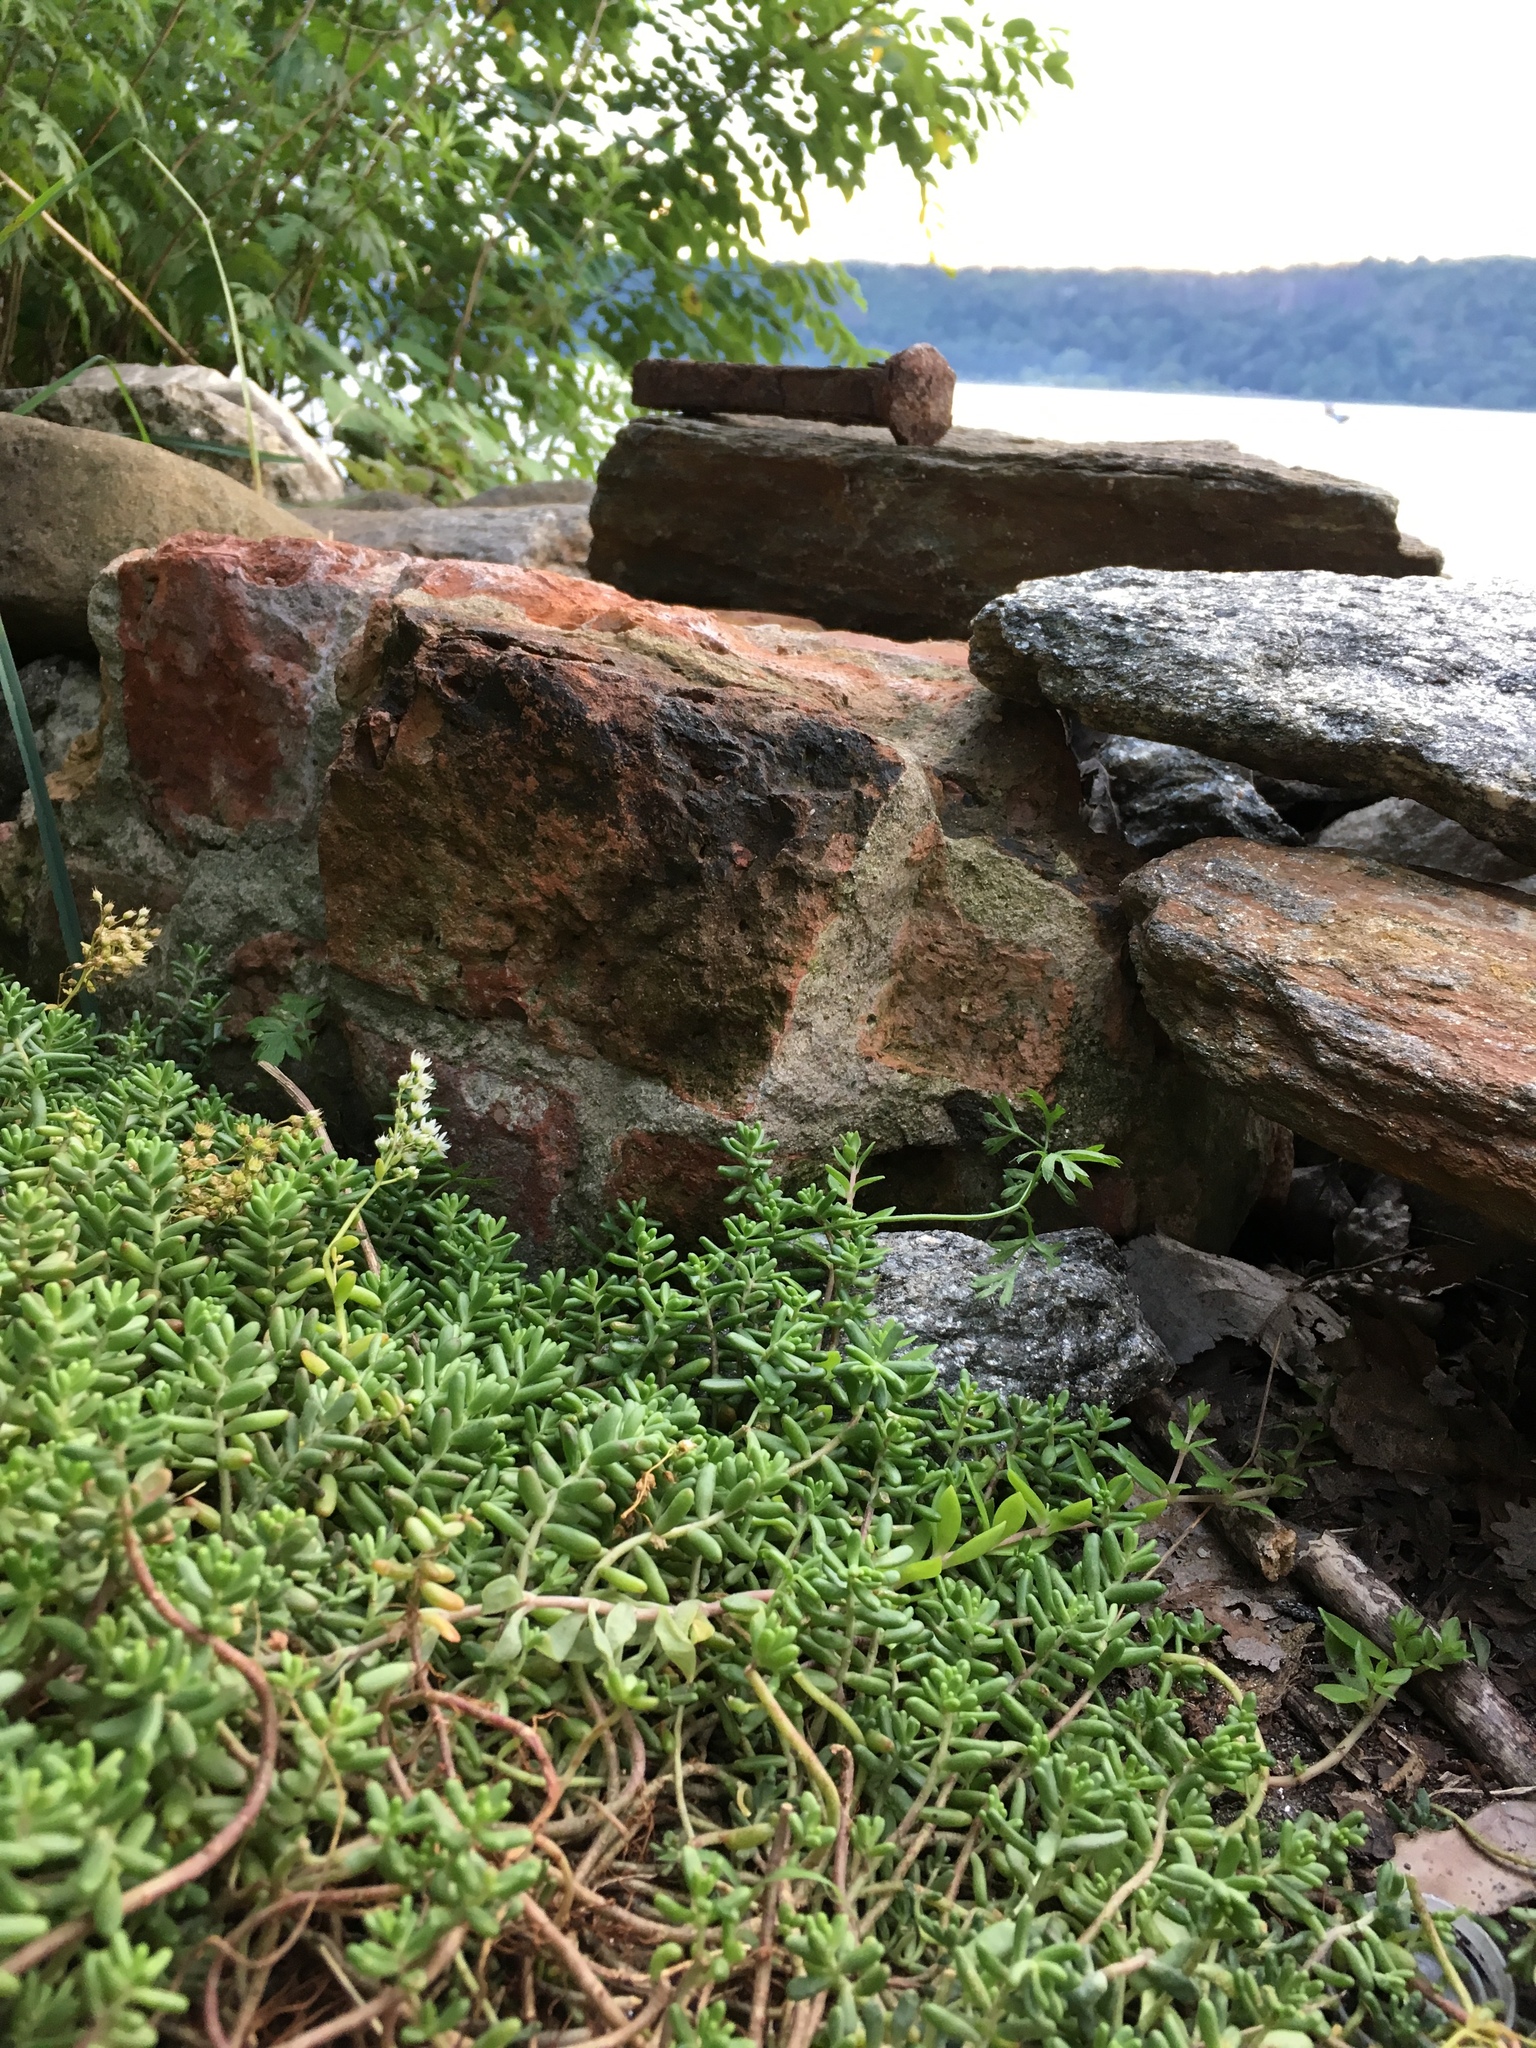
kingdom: Plantae
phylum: Tracheophyta
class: Magnoliopsida
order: Saxifragales
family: Crassulaceae
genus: Sedum
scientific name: Sedum album
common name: White stonecrop
